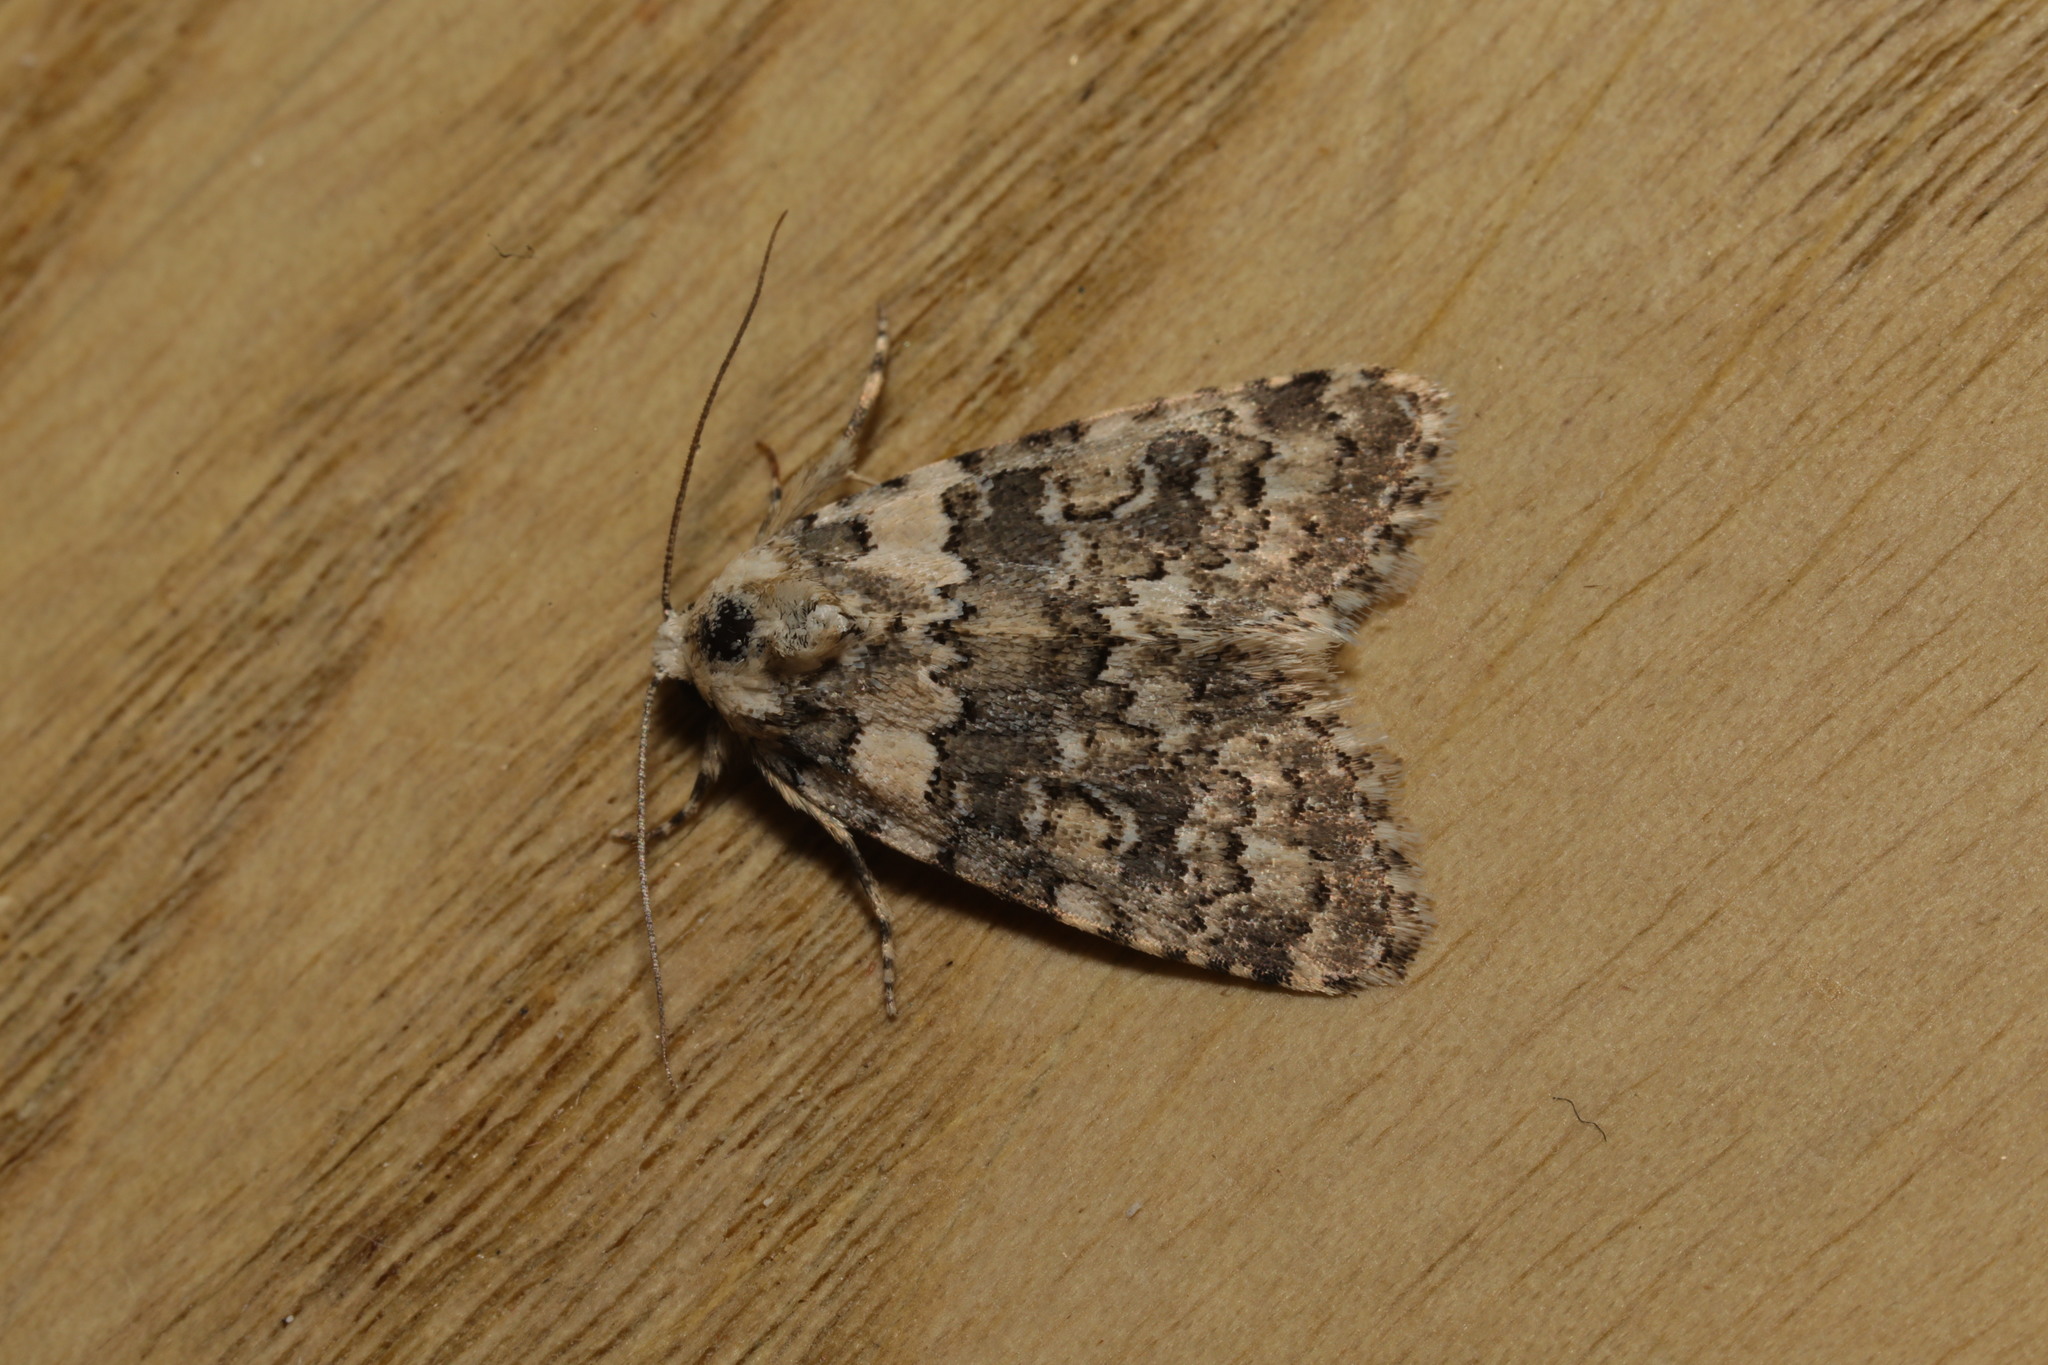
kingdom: Animalia
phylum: Arthropoda
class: Insecta
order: Lepidoptera
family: Noctuidae
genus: Bryophila
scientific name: Bryophila domestica
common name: Marbled beauty
